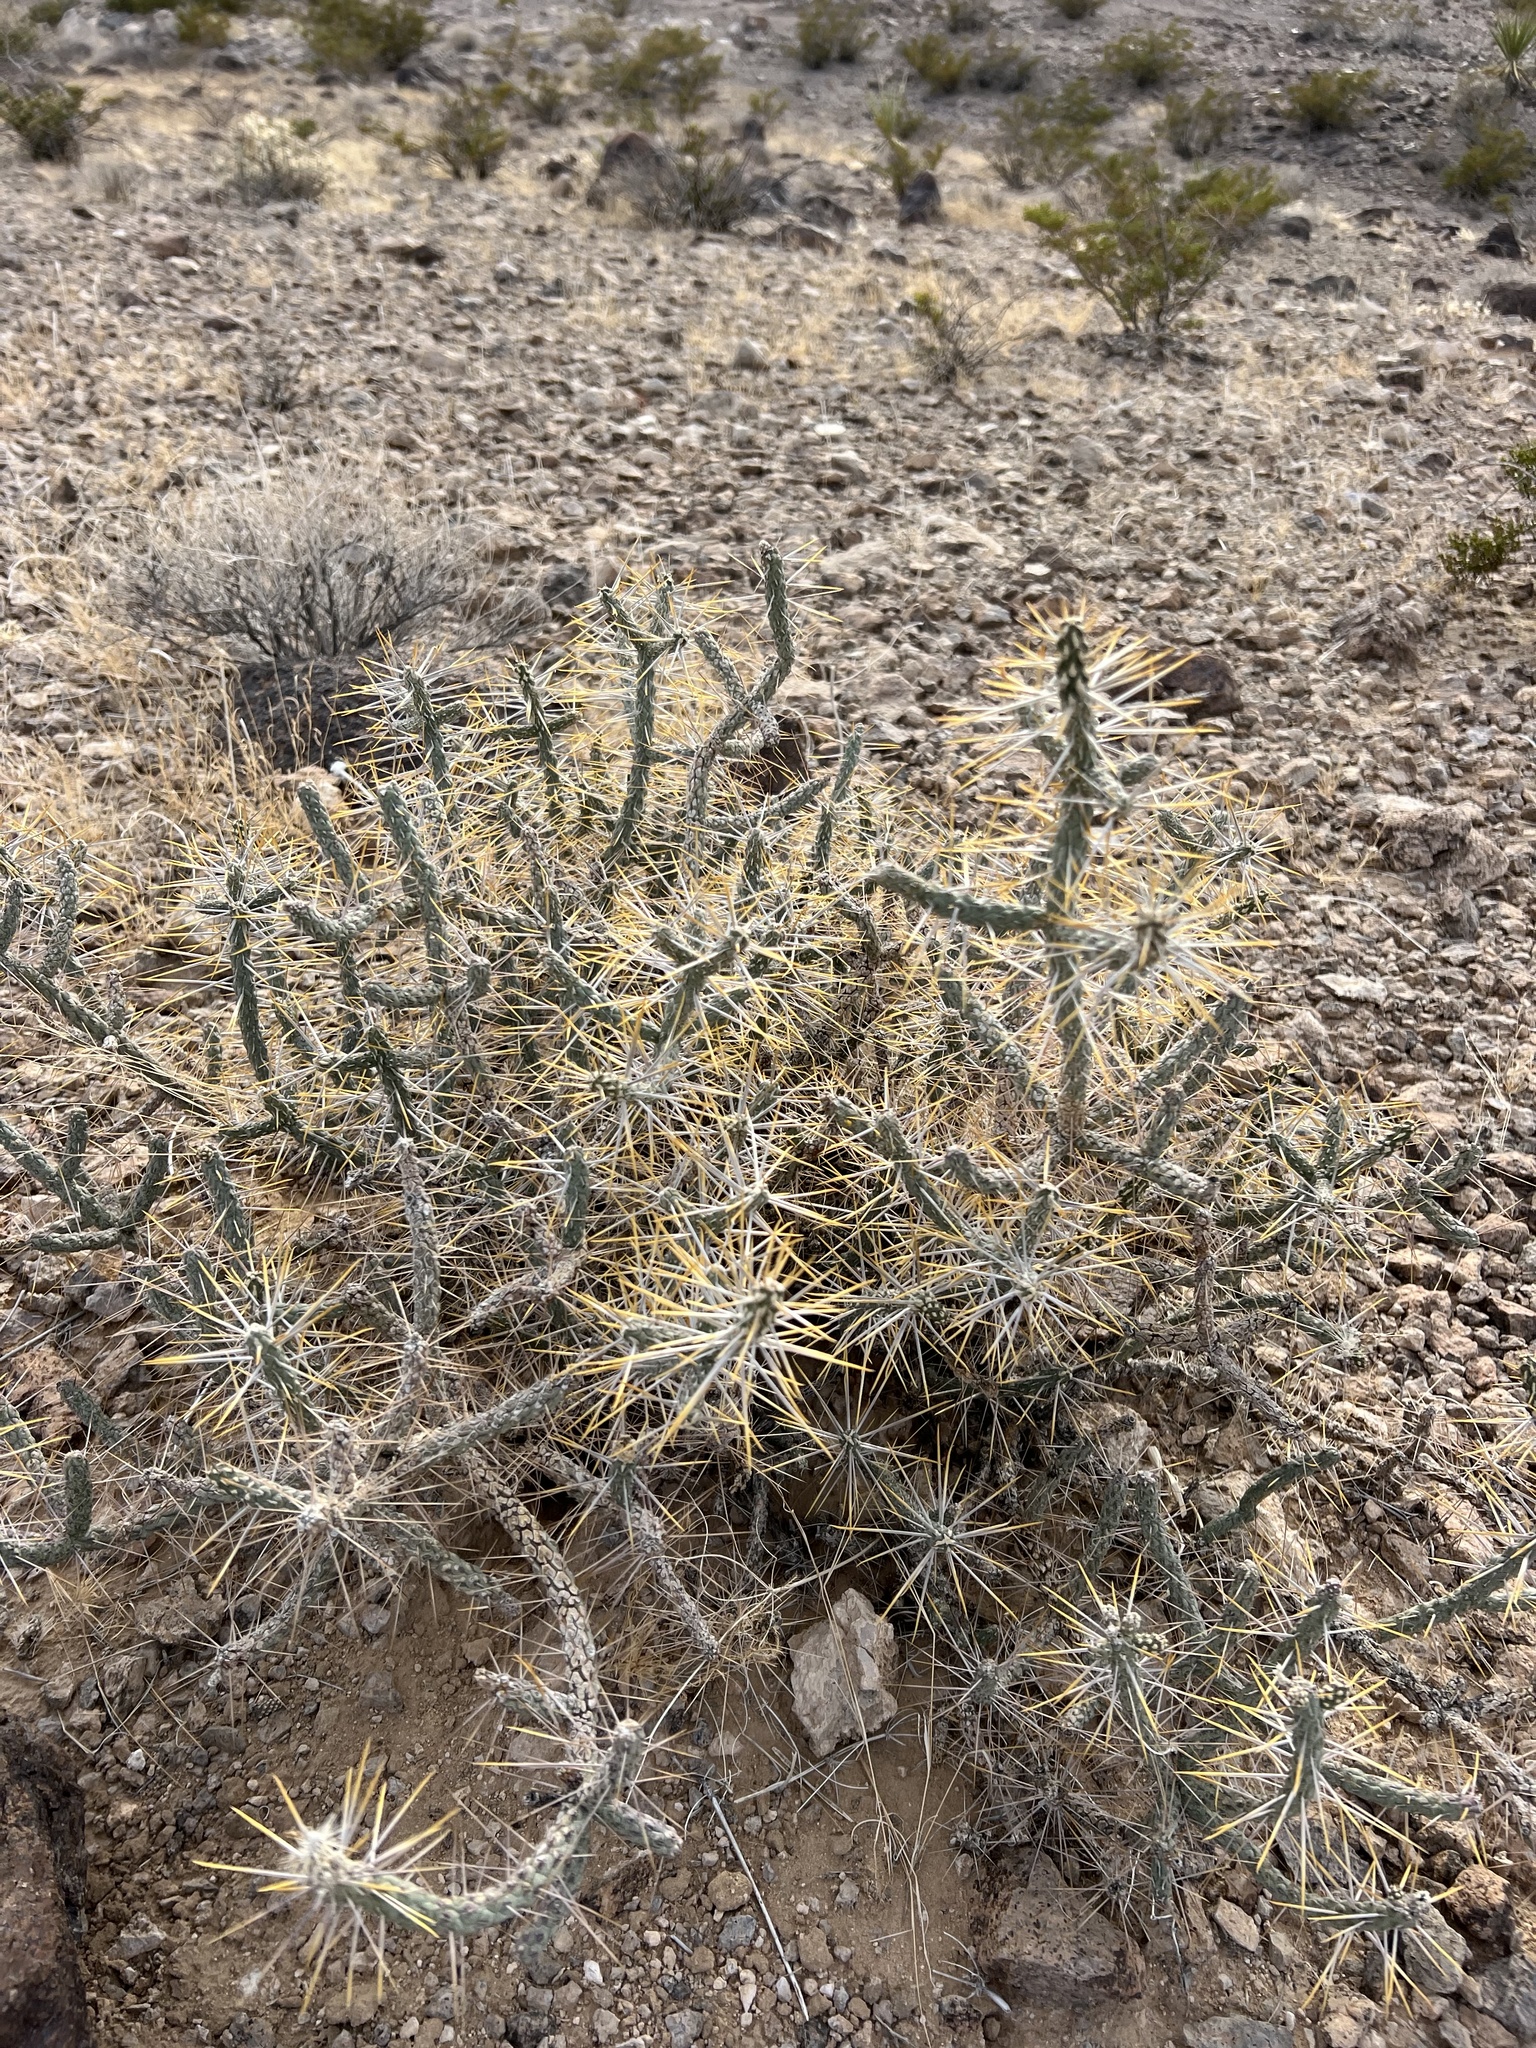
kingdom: Plantae
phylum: Tracheophyta
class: Magnoliopsida
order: Caryophyllales
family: Cactaceae
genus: Cylindropuntia
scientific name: Cylindropuntia ramosissima
